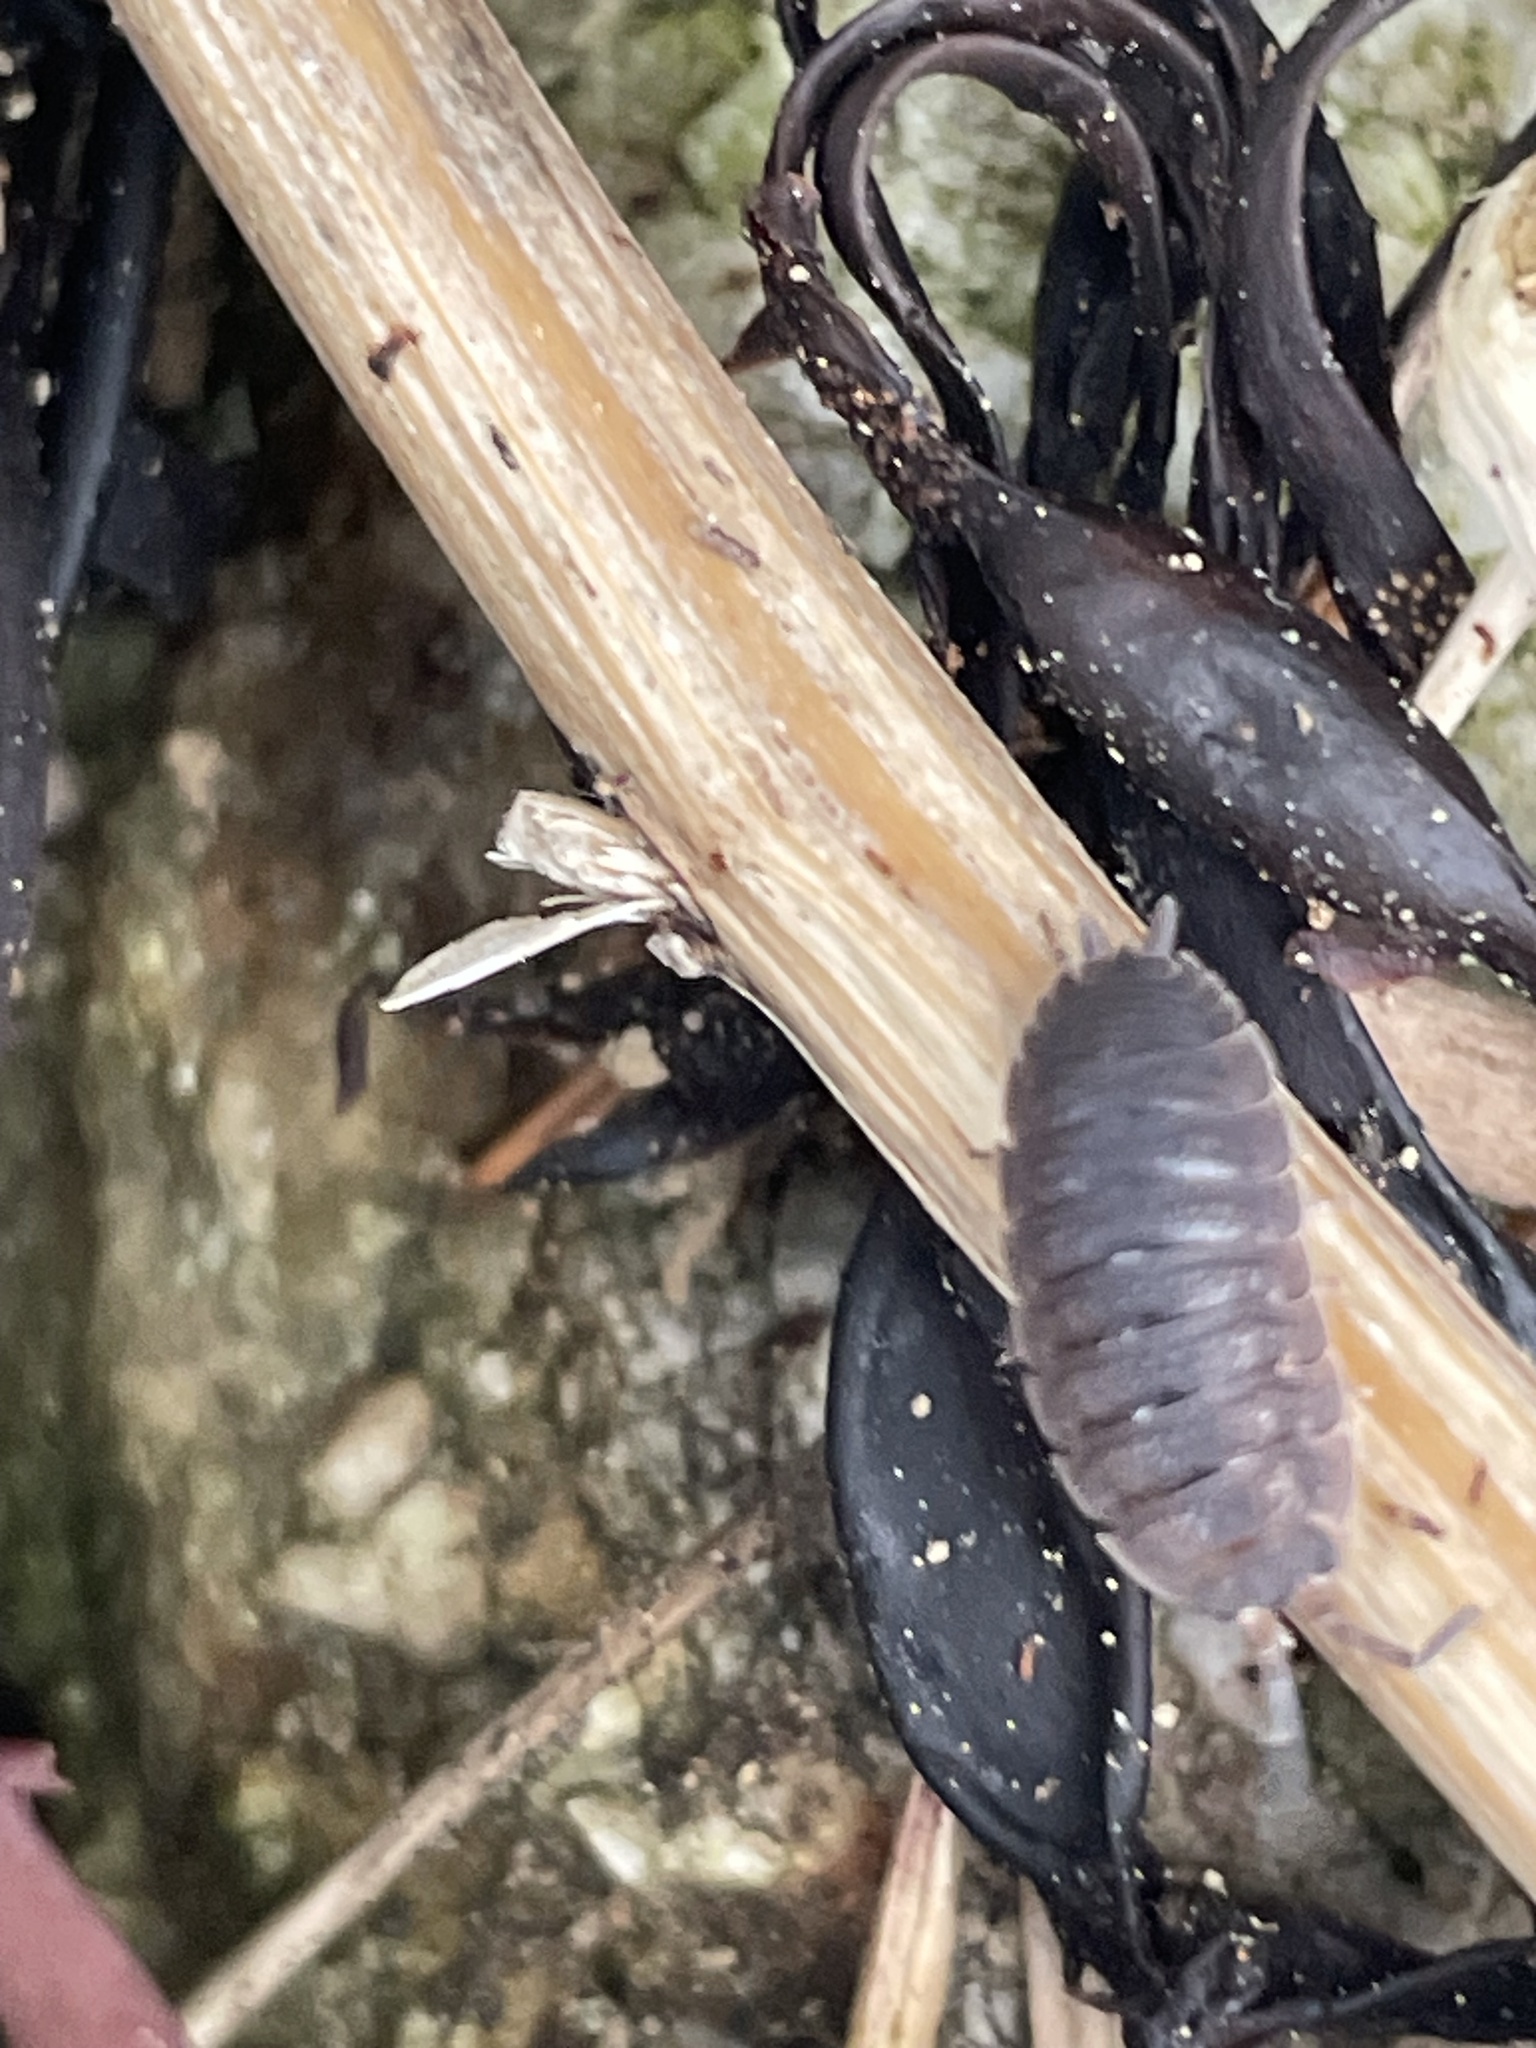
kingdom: Animalia
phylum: Arthropoda
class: Malacostraca
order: Isopoda
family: Porcellionidae
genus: Porcellio
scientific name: Porcellio scaber
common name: Common rough woodlouse
